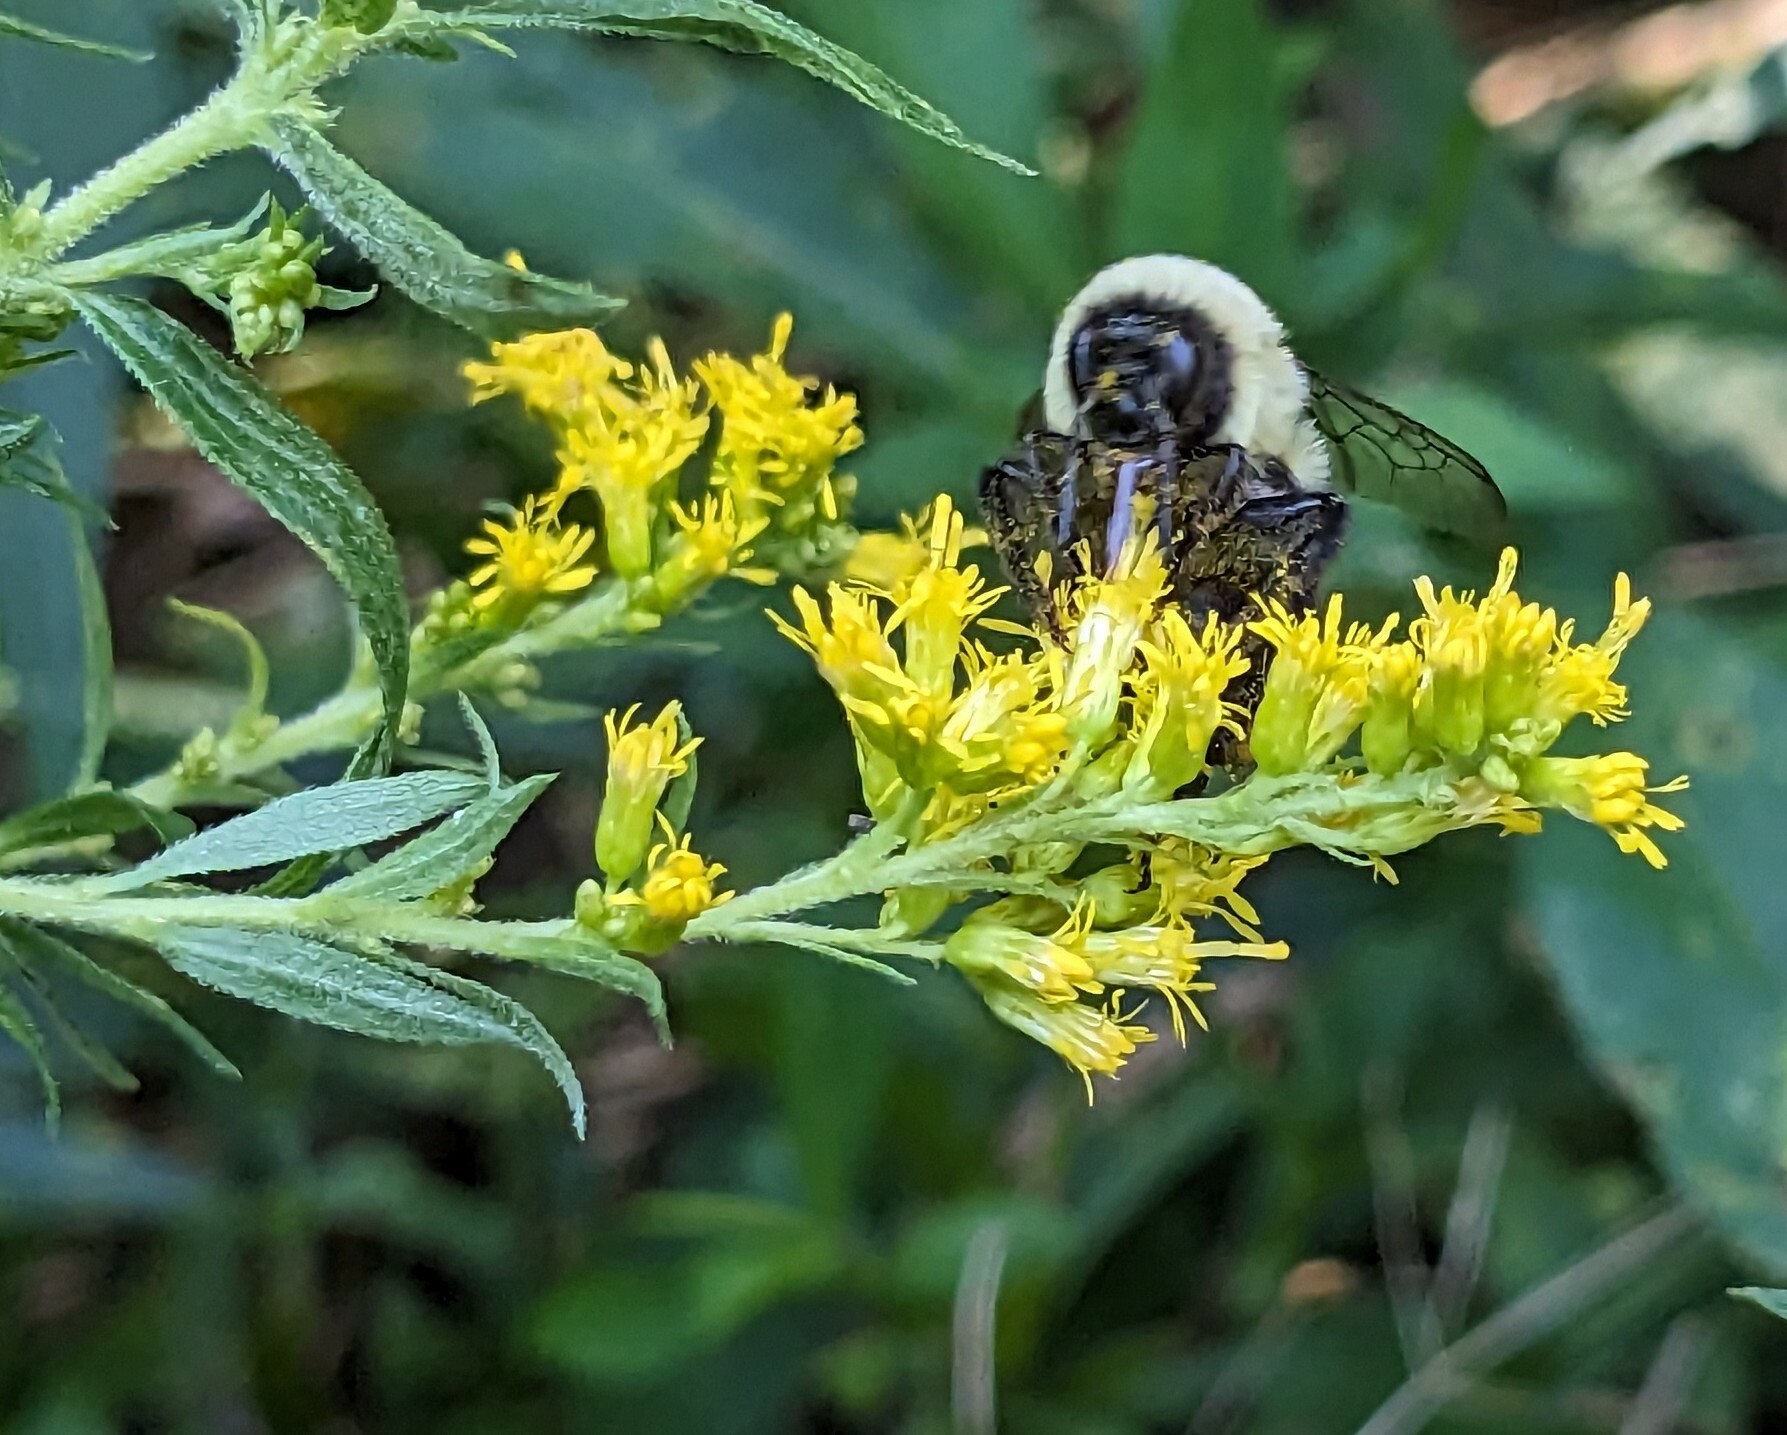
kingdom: Animalia
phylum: Arthropoda
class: Insecta
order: Hymenoptera
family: Apidae
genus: Bombus
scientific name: Bombus impatiens
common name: Common eastern bumble bee
